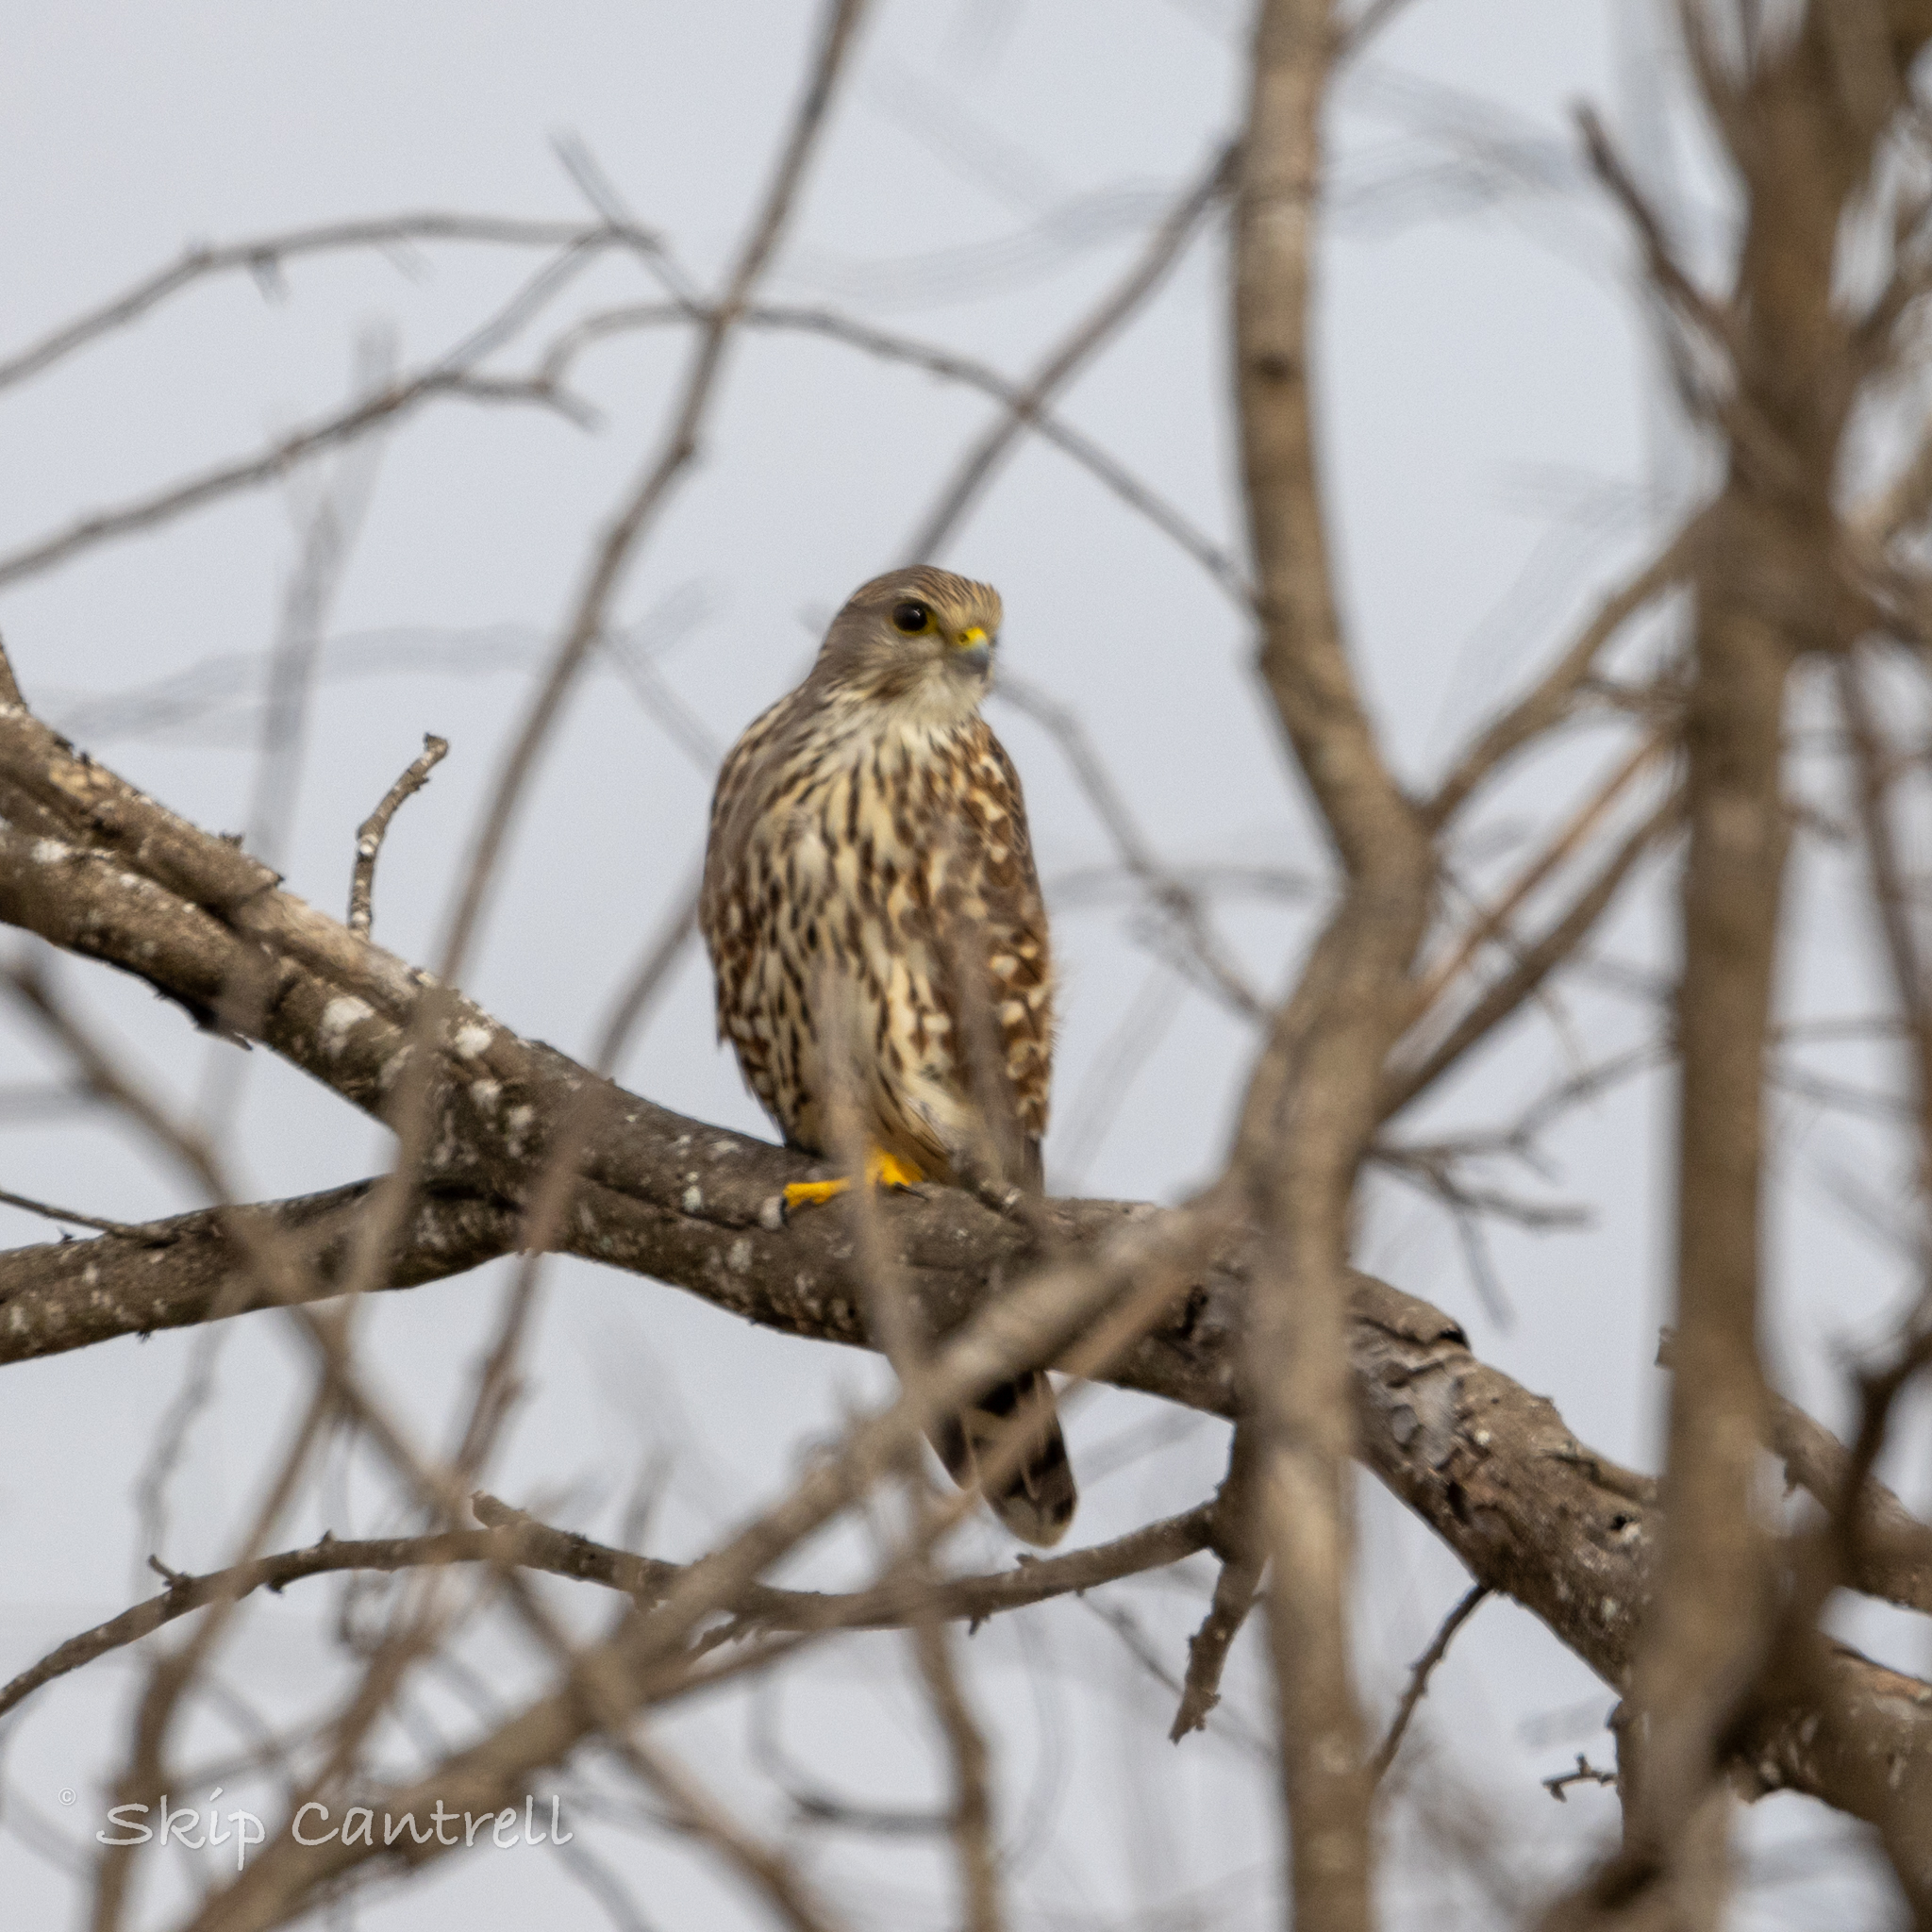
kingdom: Animalia
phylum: Chordata
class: Aves
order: Falconiformes
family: Falconidae
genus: Falco
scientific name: Falco columbarius
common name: Merlin
